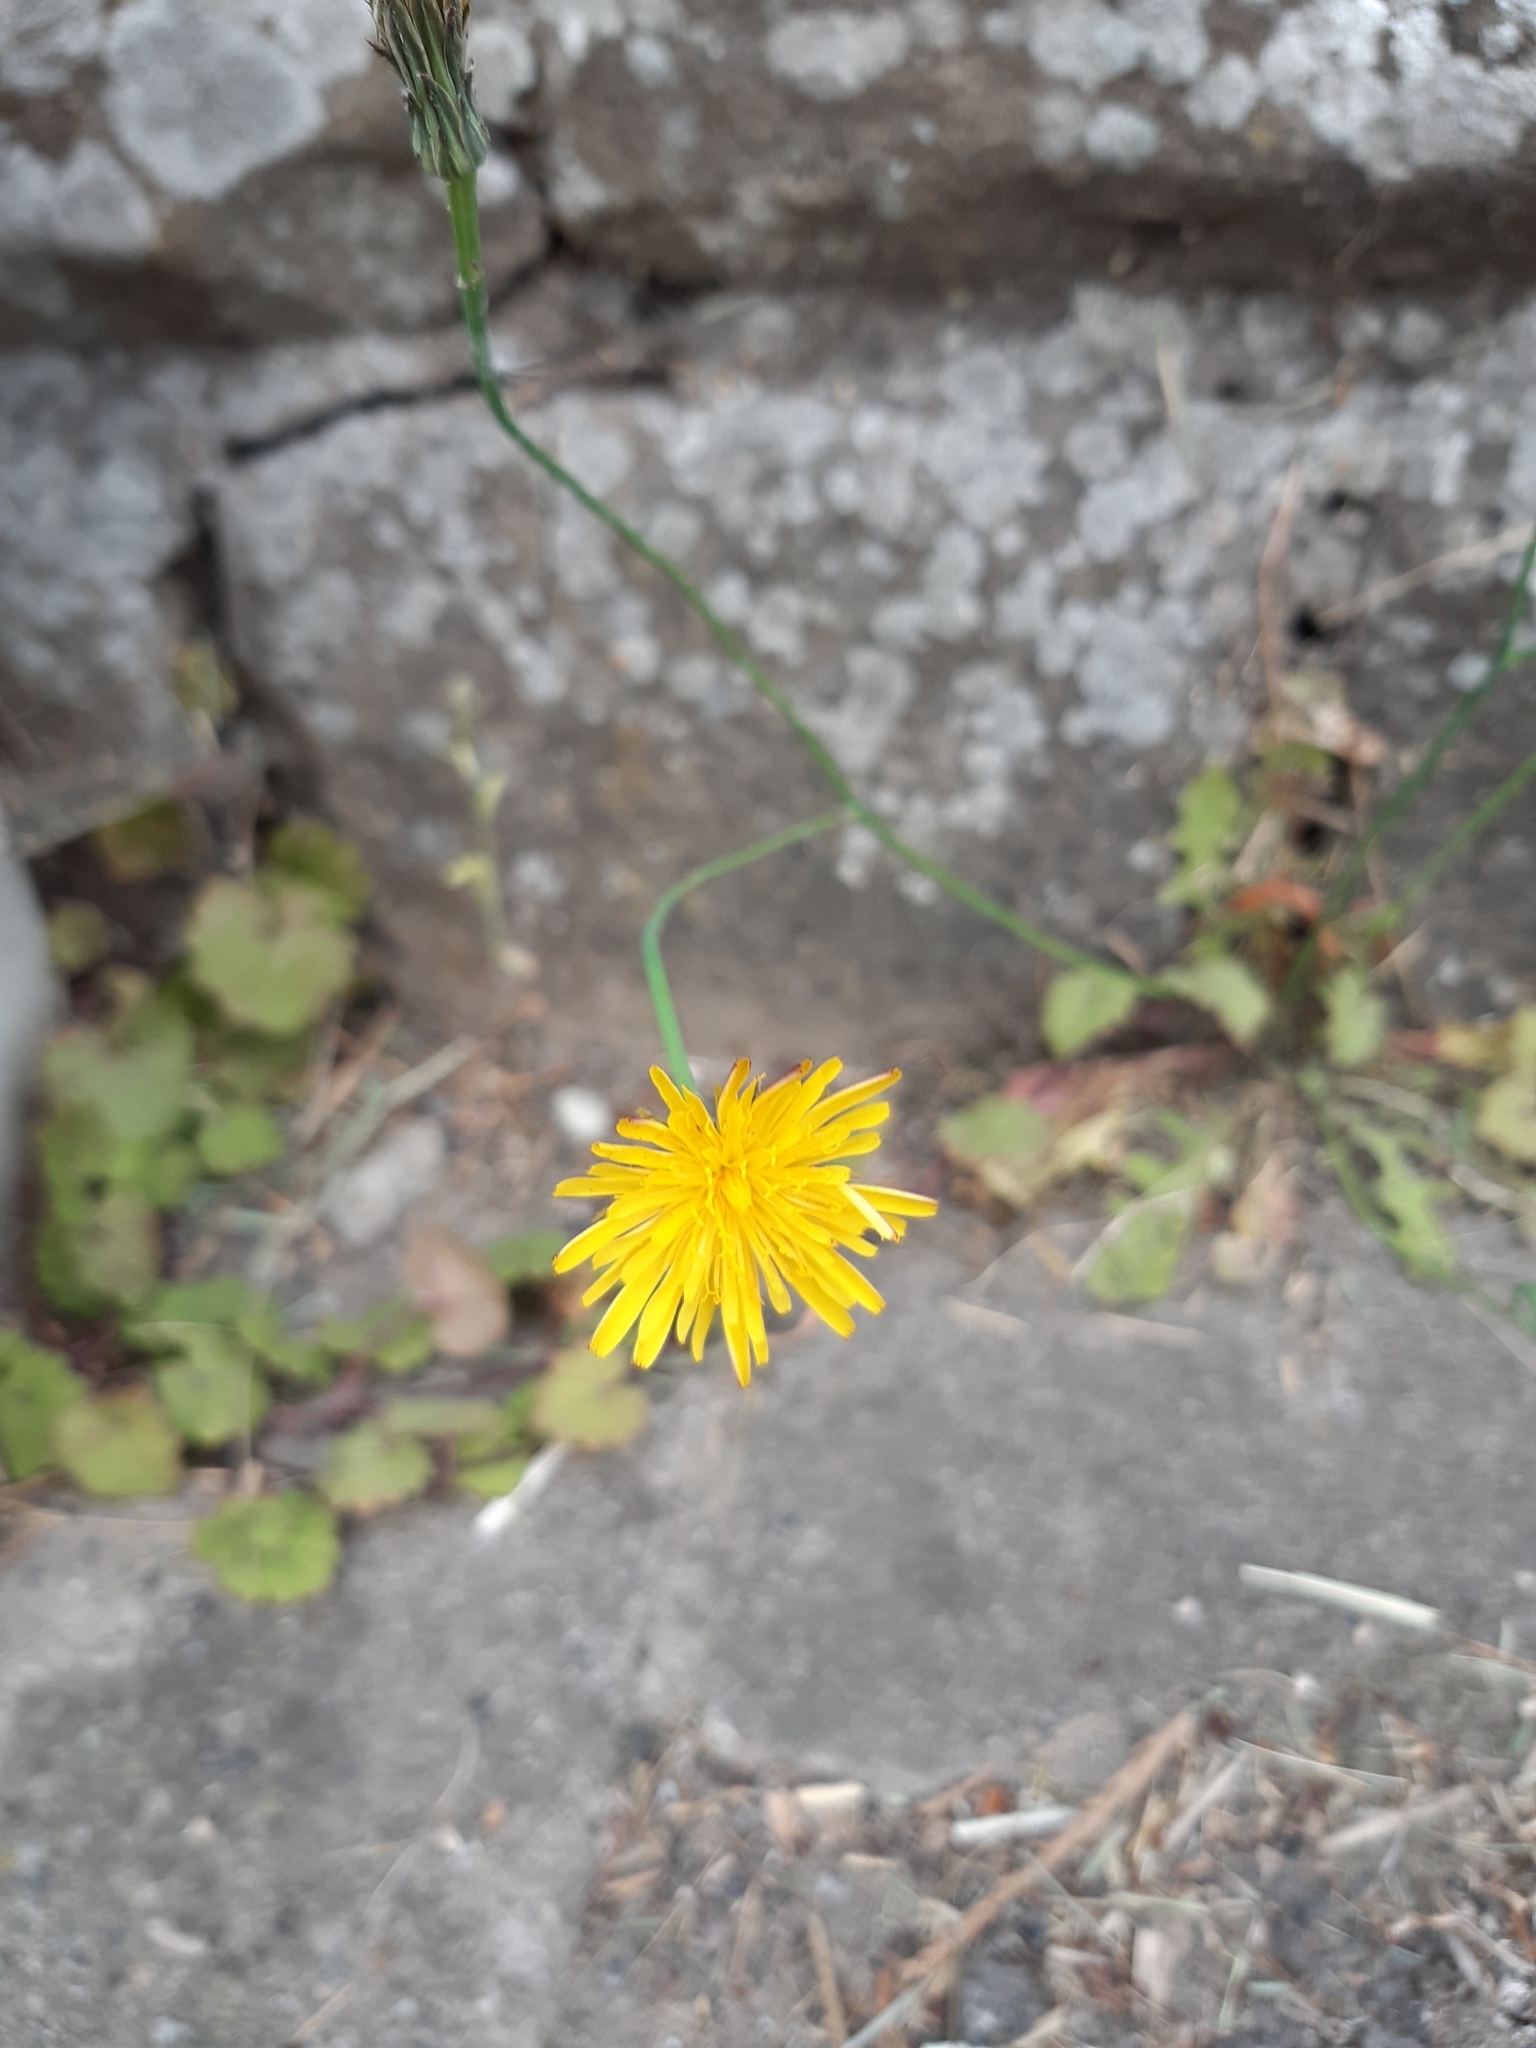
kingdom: Plantae
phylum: Tracheophyta
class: Magnoliopsida
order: Asterales
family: Asteraceae
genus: Hypochaeris
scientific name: Hypochaeris radicata
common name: Flatweed
